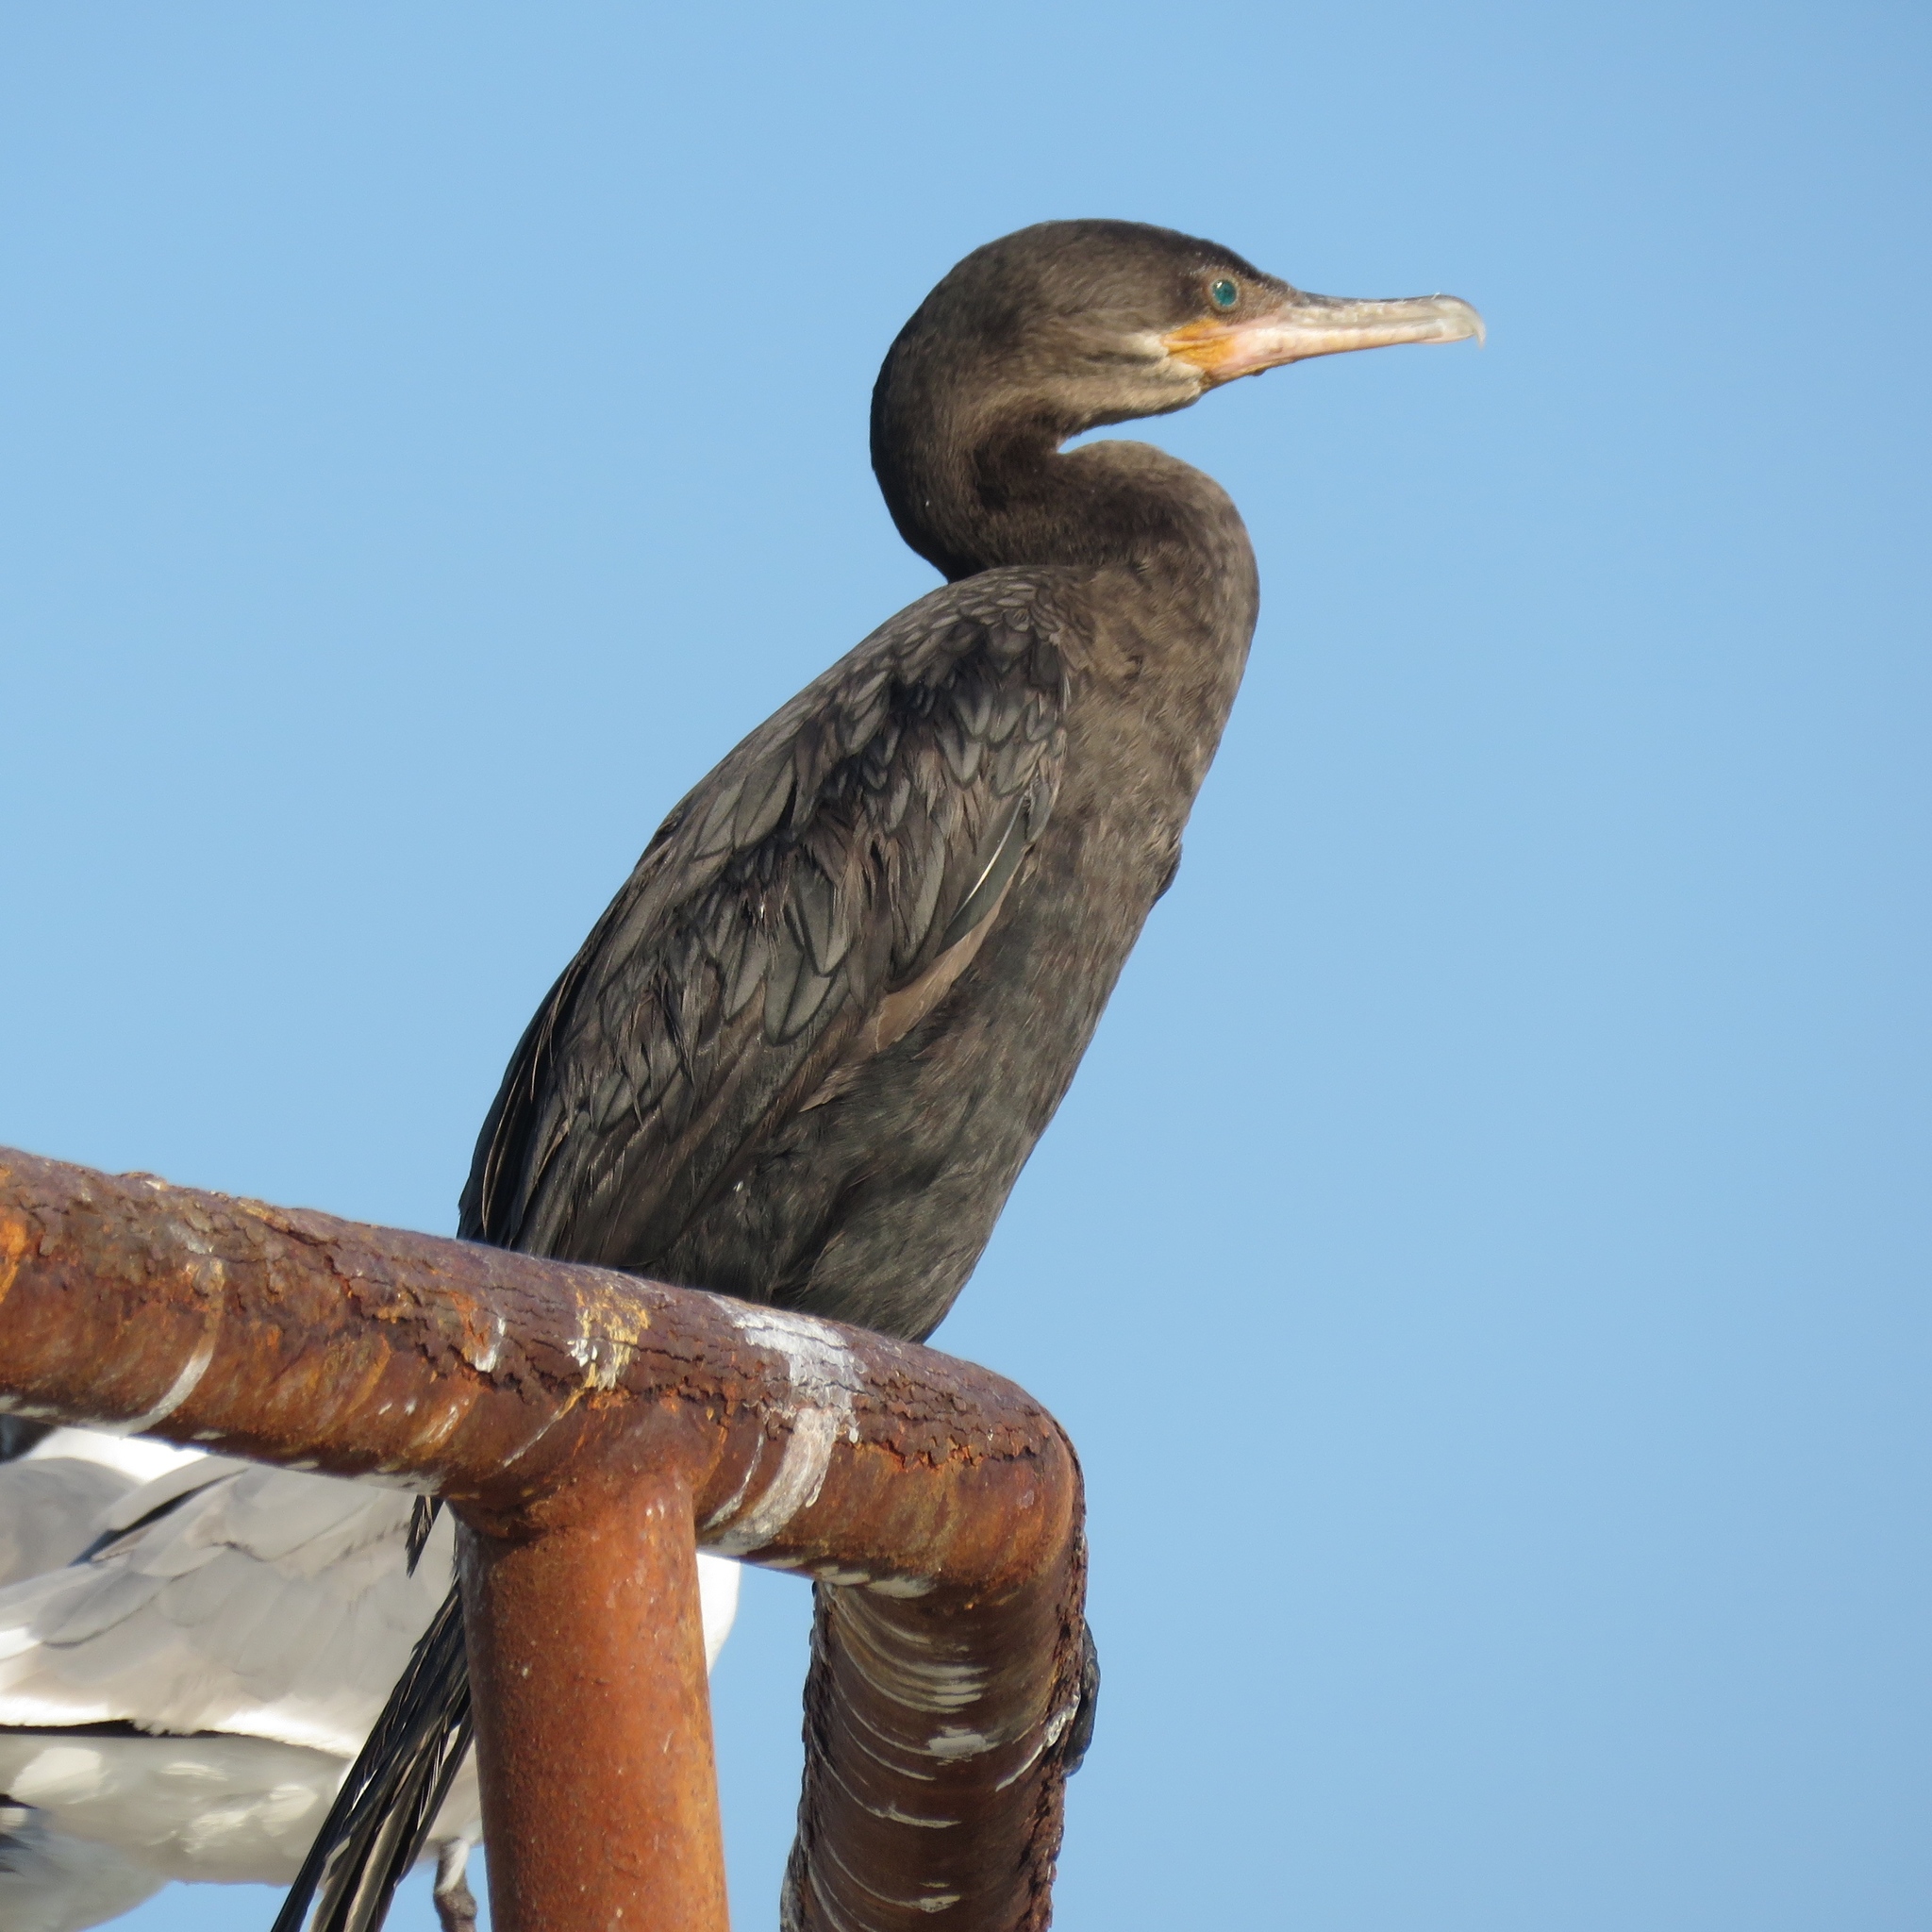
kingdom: Animalia
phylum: Chordata
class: Aves
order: Suliformes
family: Phalacrocoracidae
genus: Phalacrocorax
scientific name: Phalacrocorax brasilianus
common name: Neotropic cormorant
